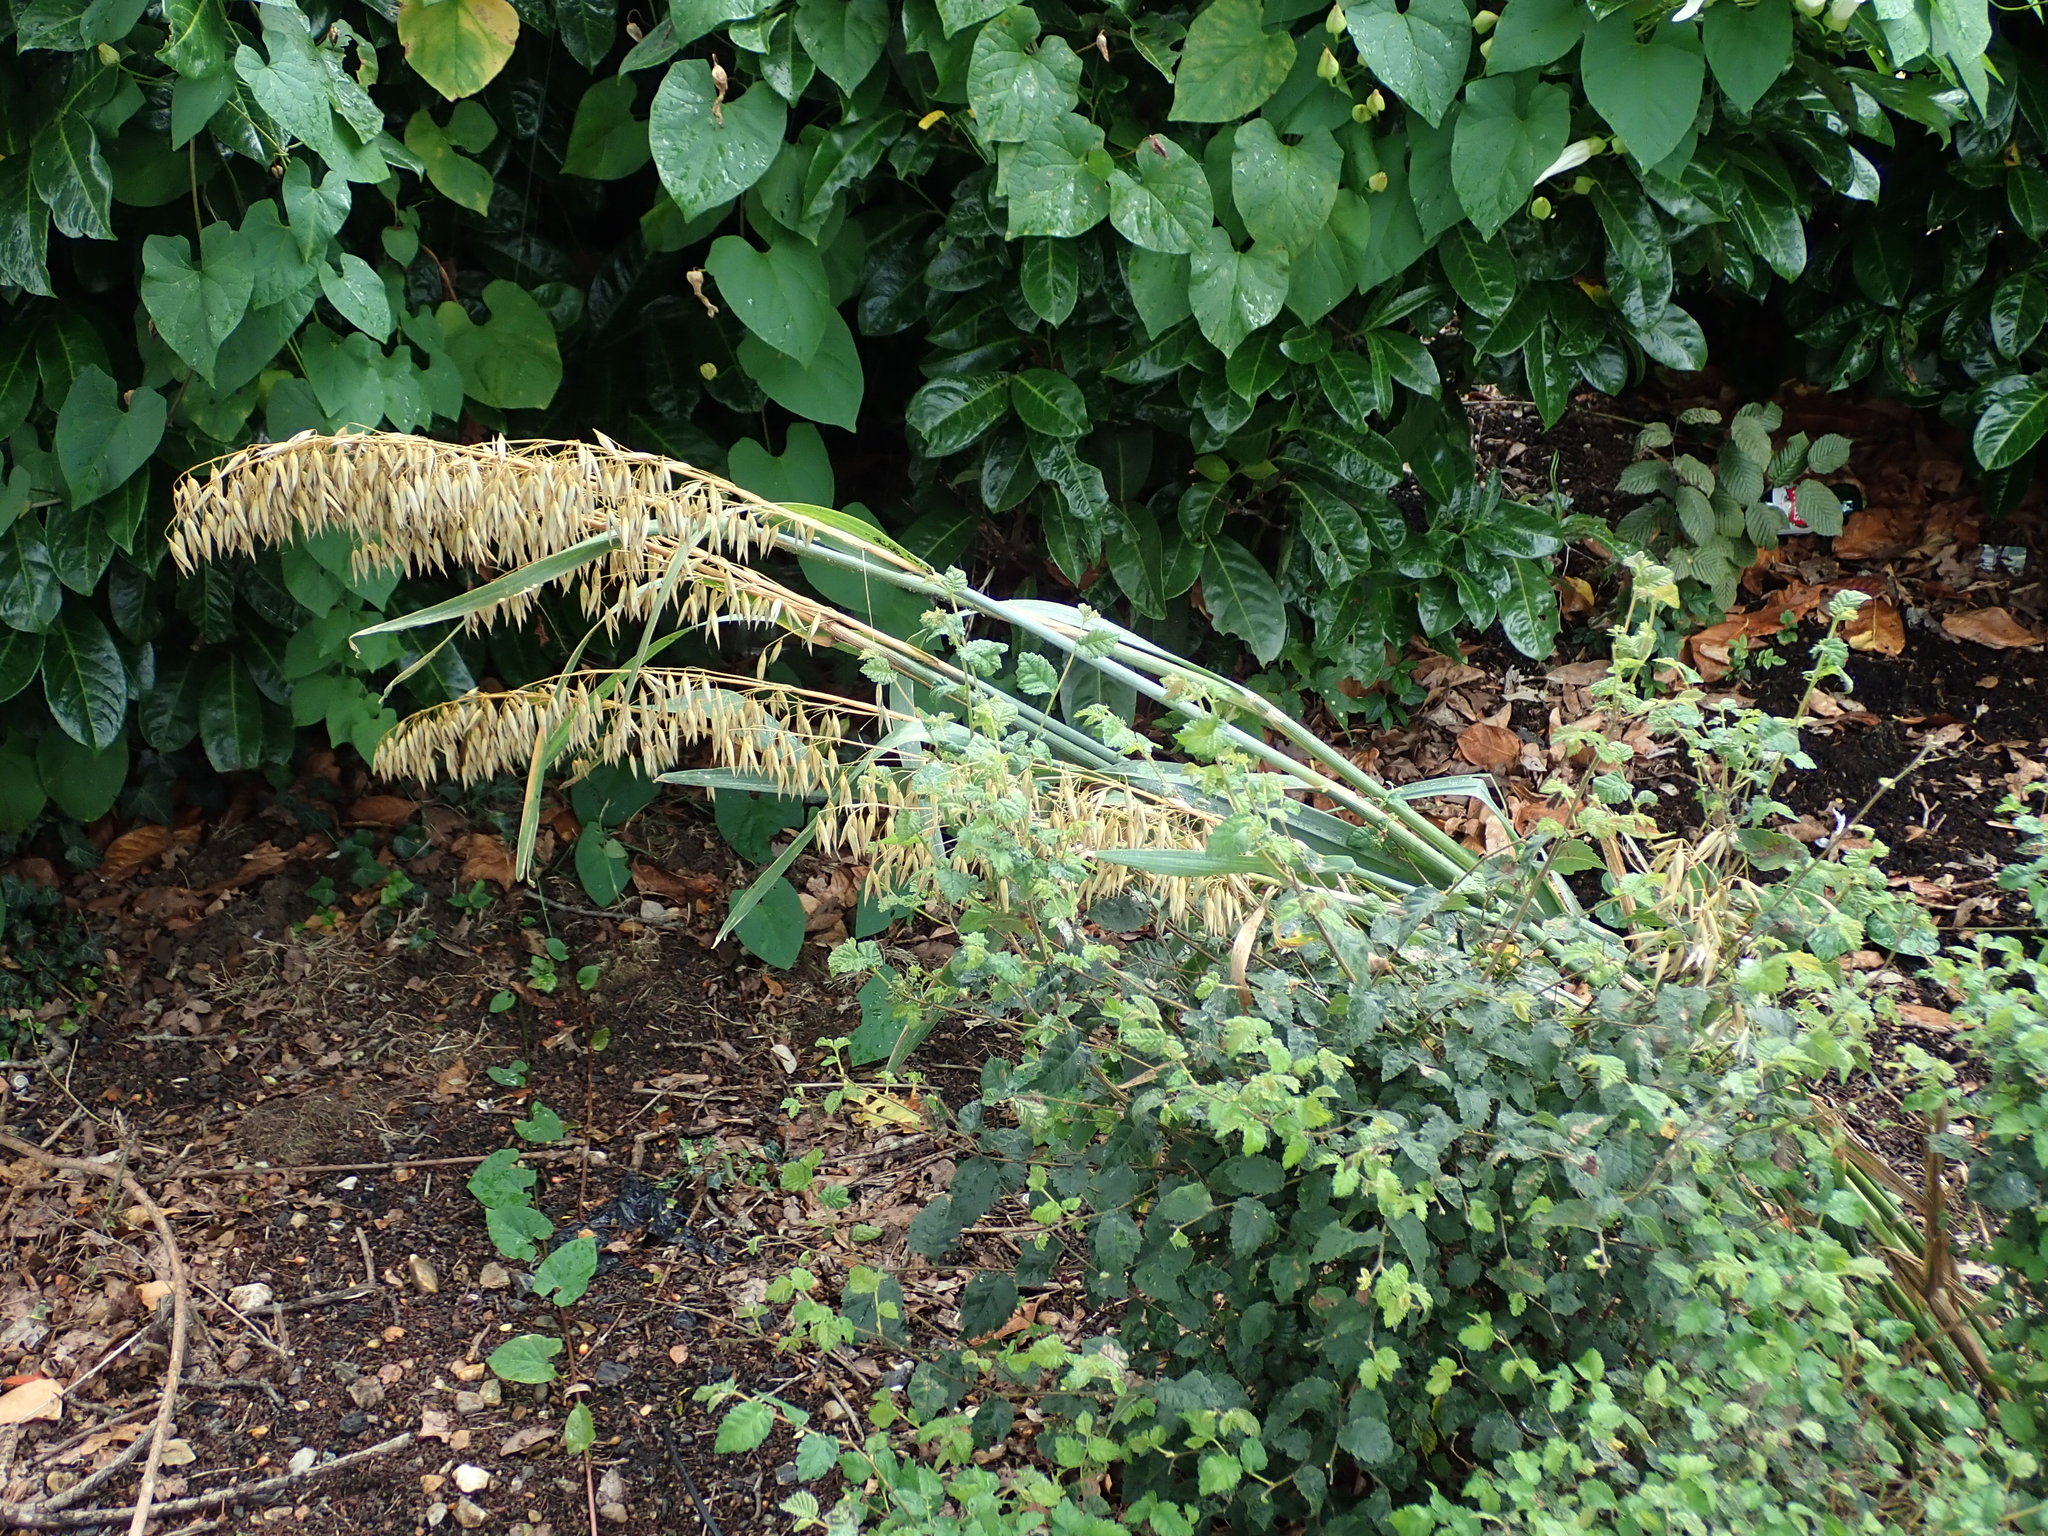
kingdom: Plantae
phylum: Tracheophyta
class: Liliopsida
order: Poales
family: Poaceae
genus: Avena
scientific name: Avena sativa
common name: Oat
